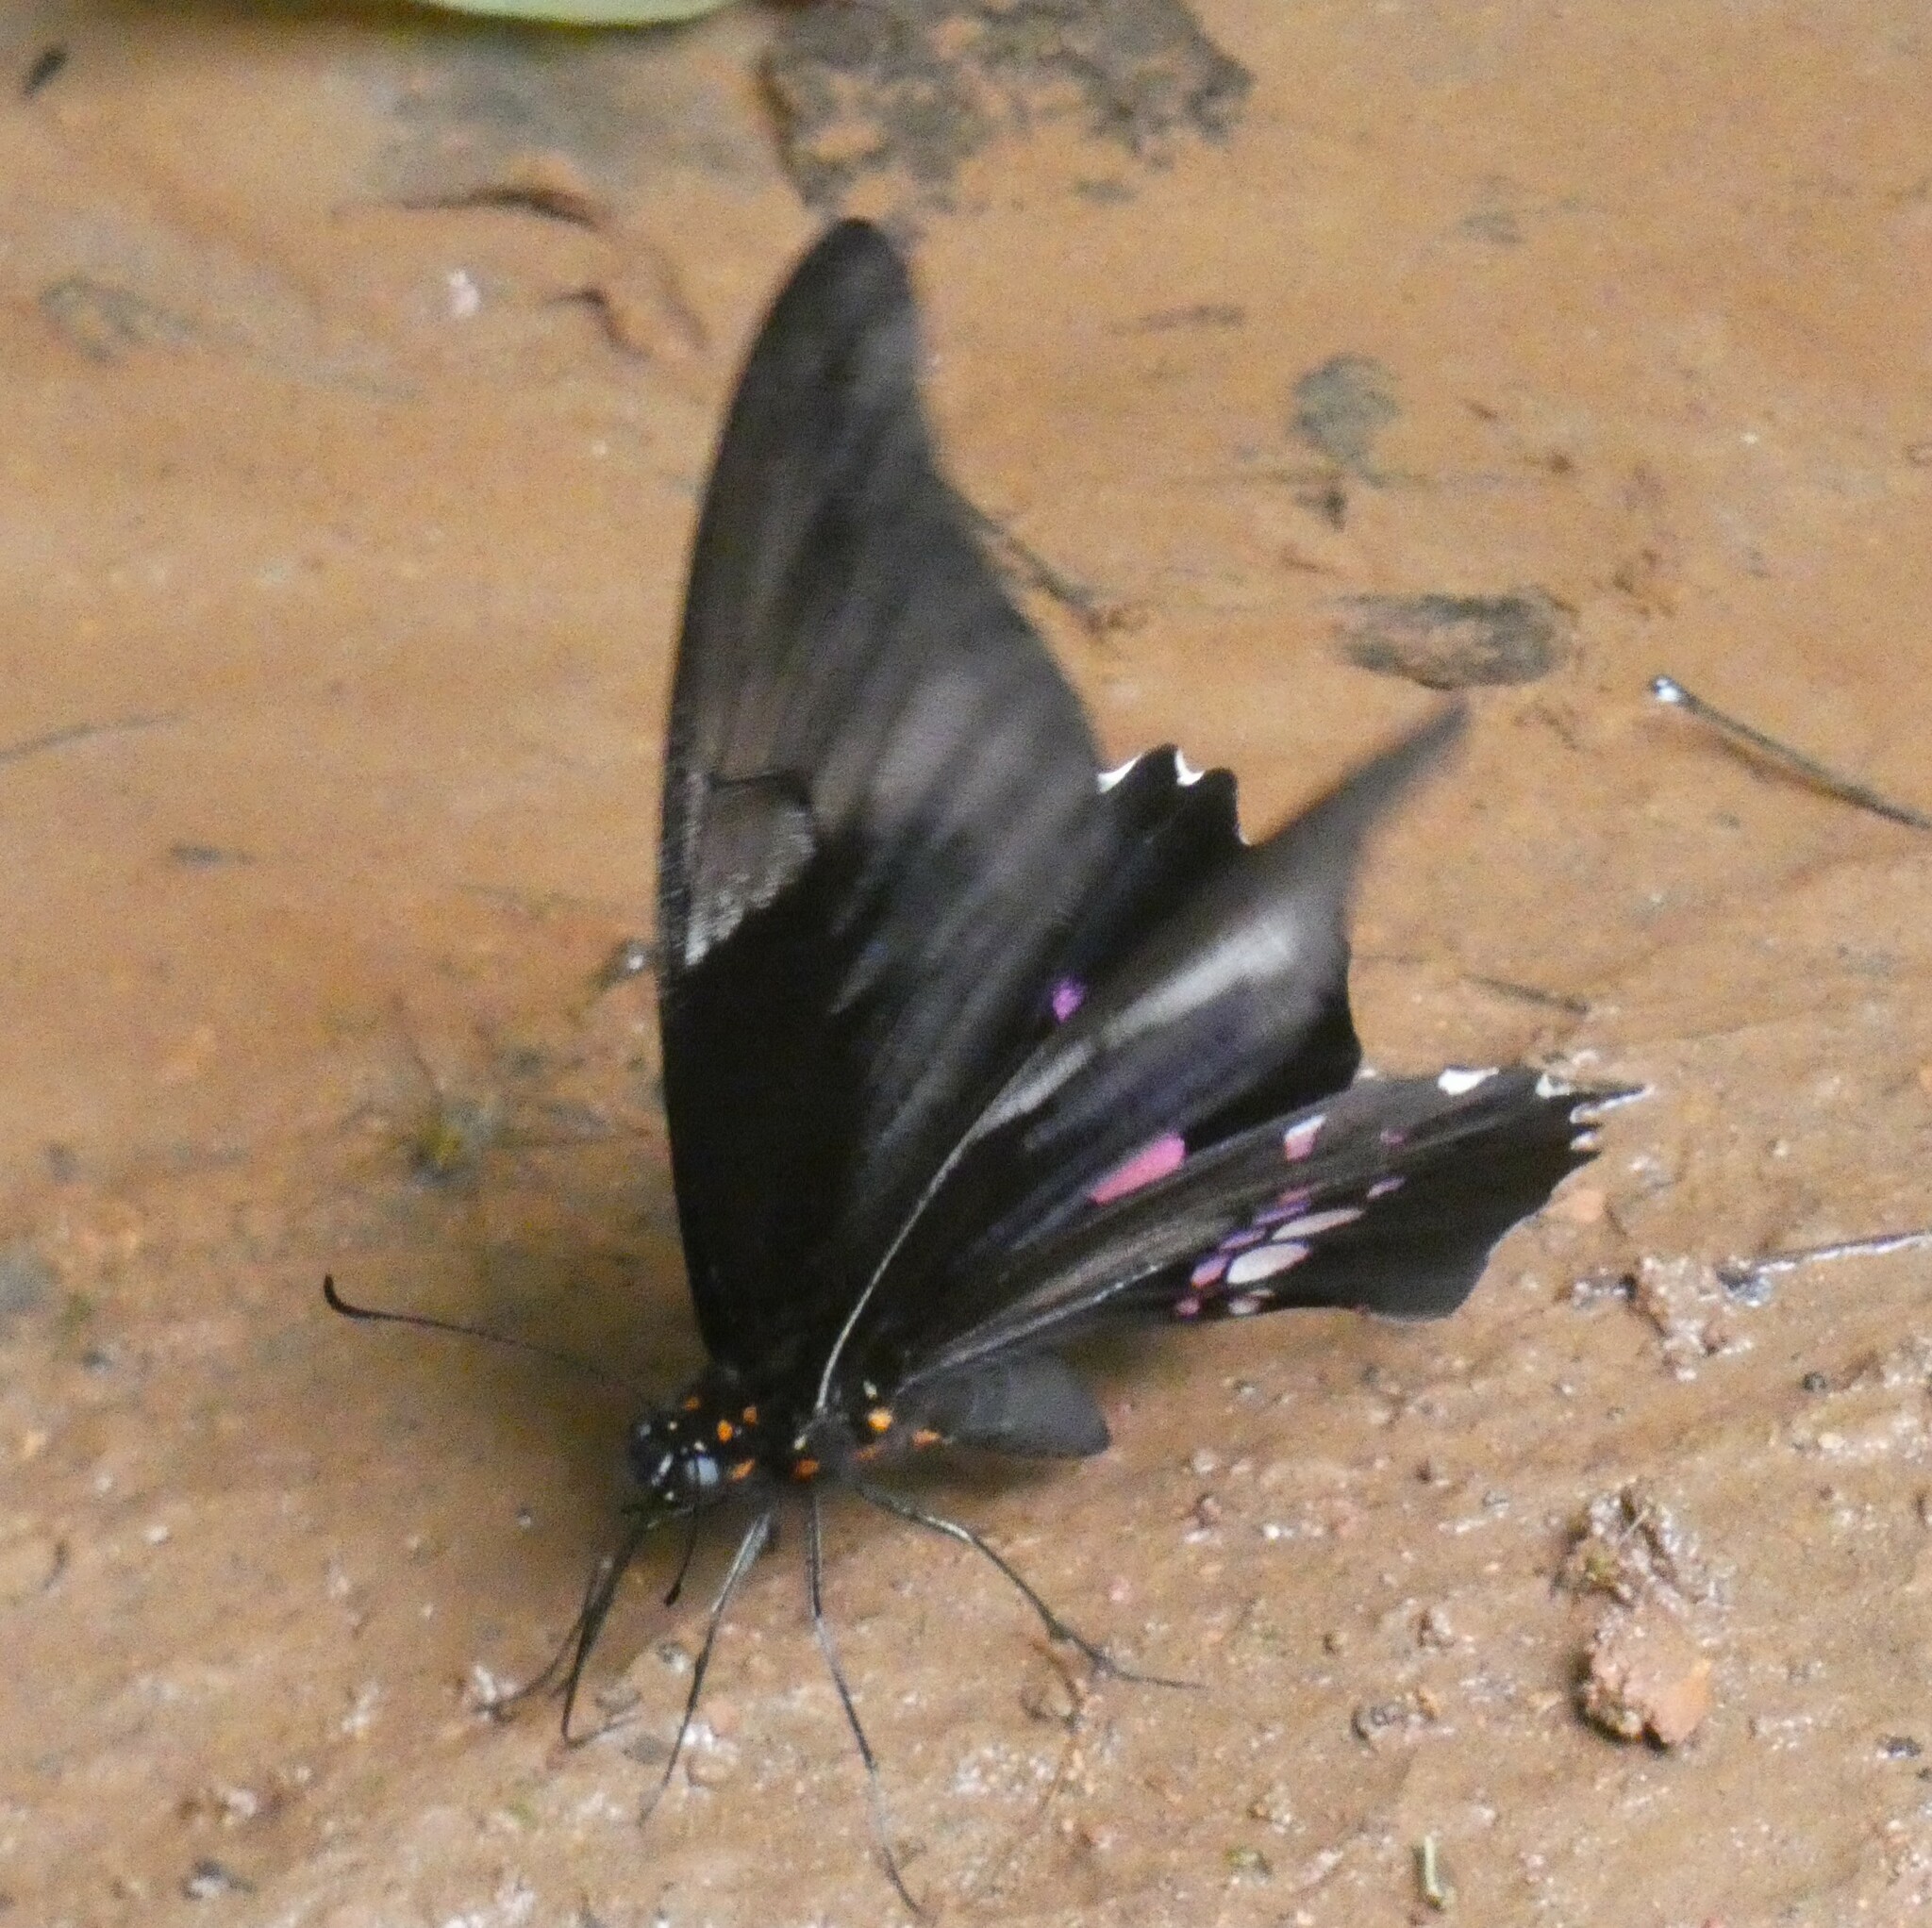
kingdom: Animalia
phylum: Arthropoda
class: Insecta
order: Lepidoptera
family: Papilionidae
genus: Papilio
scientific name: Papilio anchisiades
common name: Idaes swallowtail
